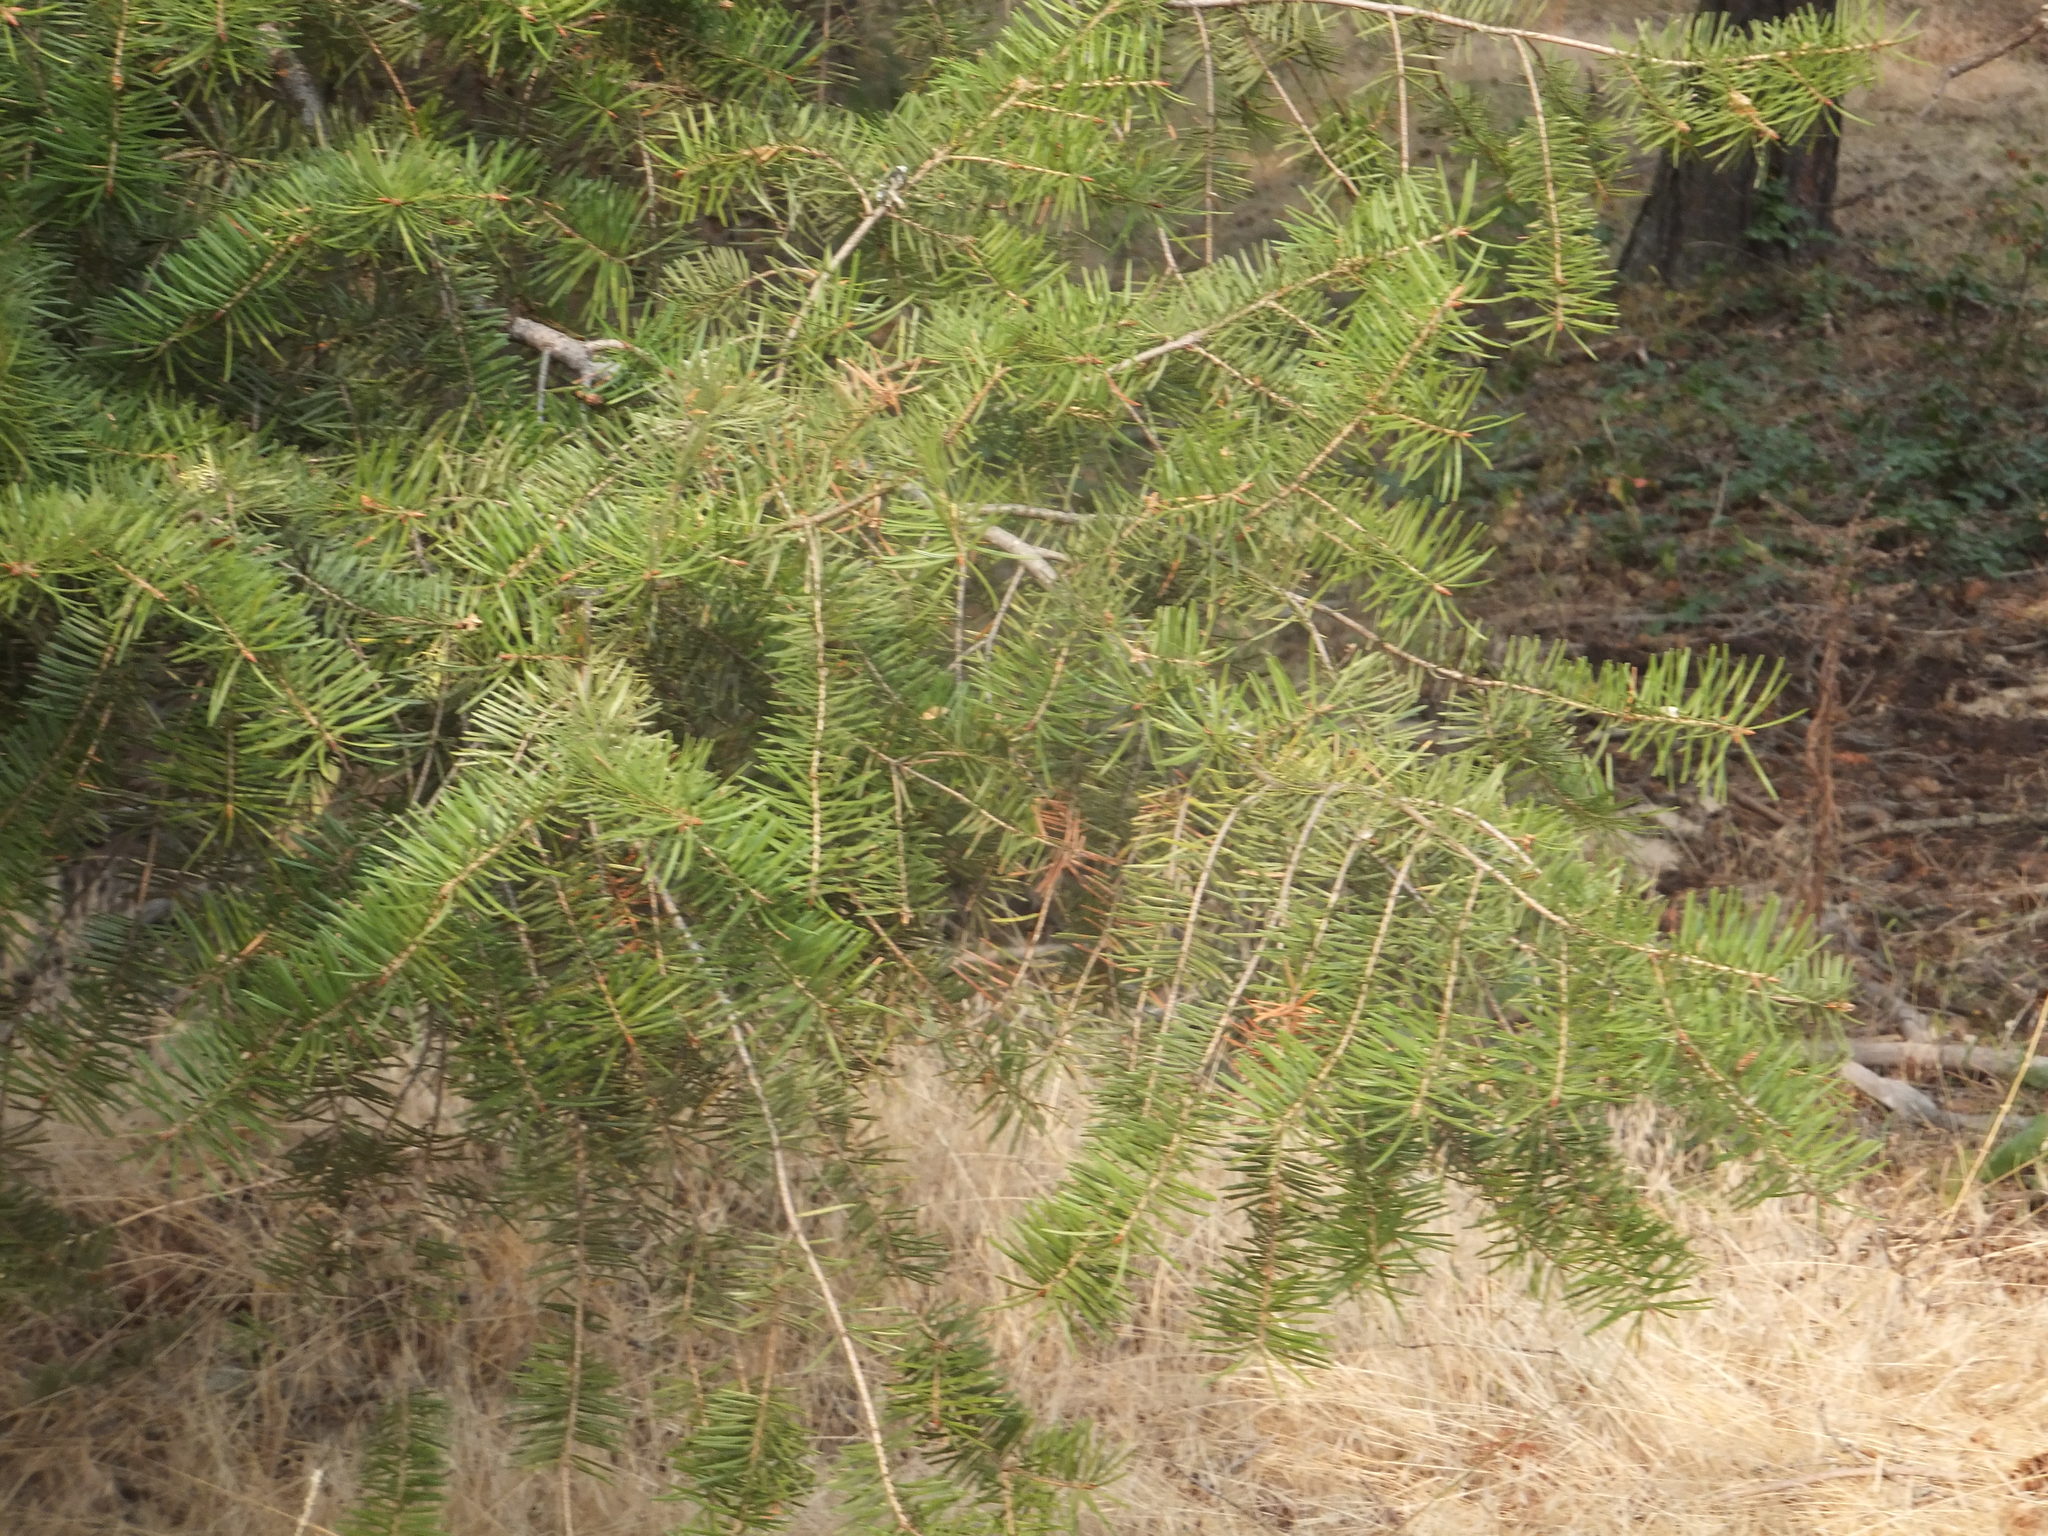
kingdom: Plantae
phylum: Tracheophyta
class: Pinopsida
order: Pinales
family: Pinaceae
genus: Pseudotsuga
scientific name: Pseudotsuga menziesii
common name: Douglas fir
